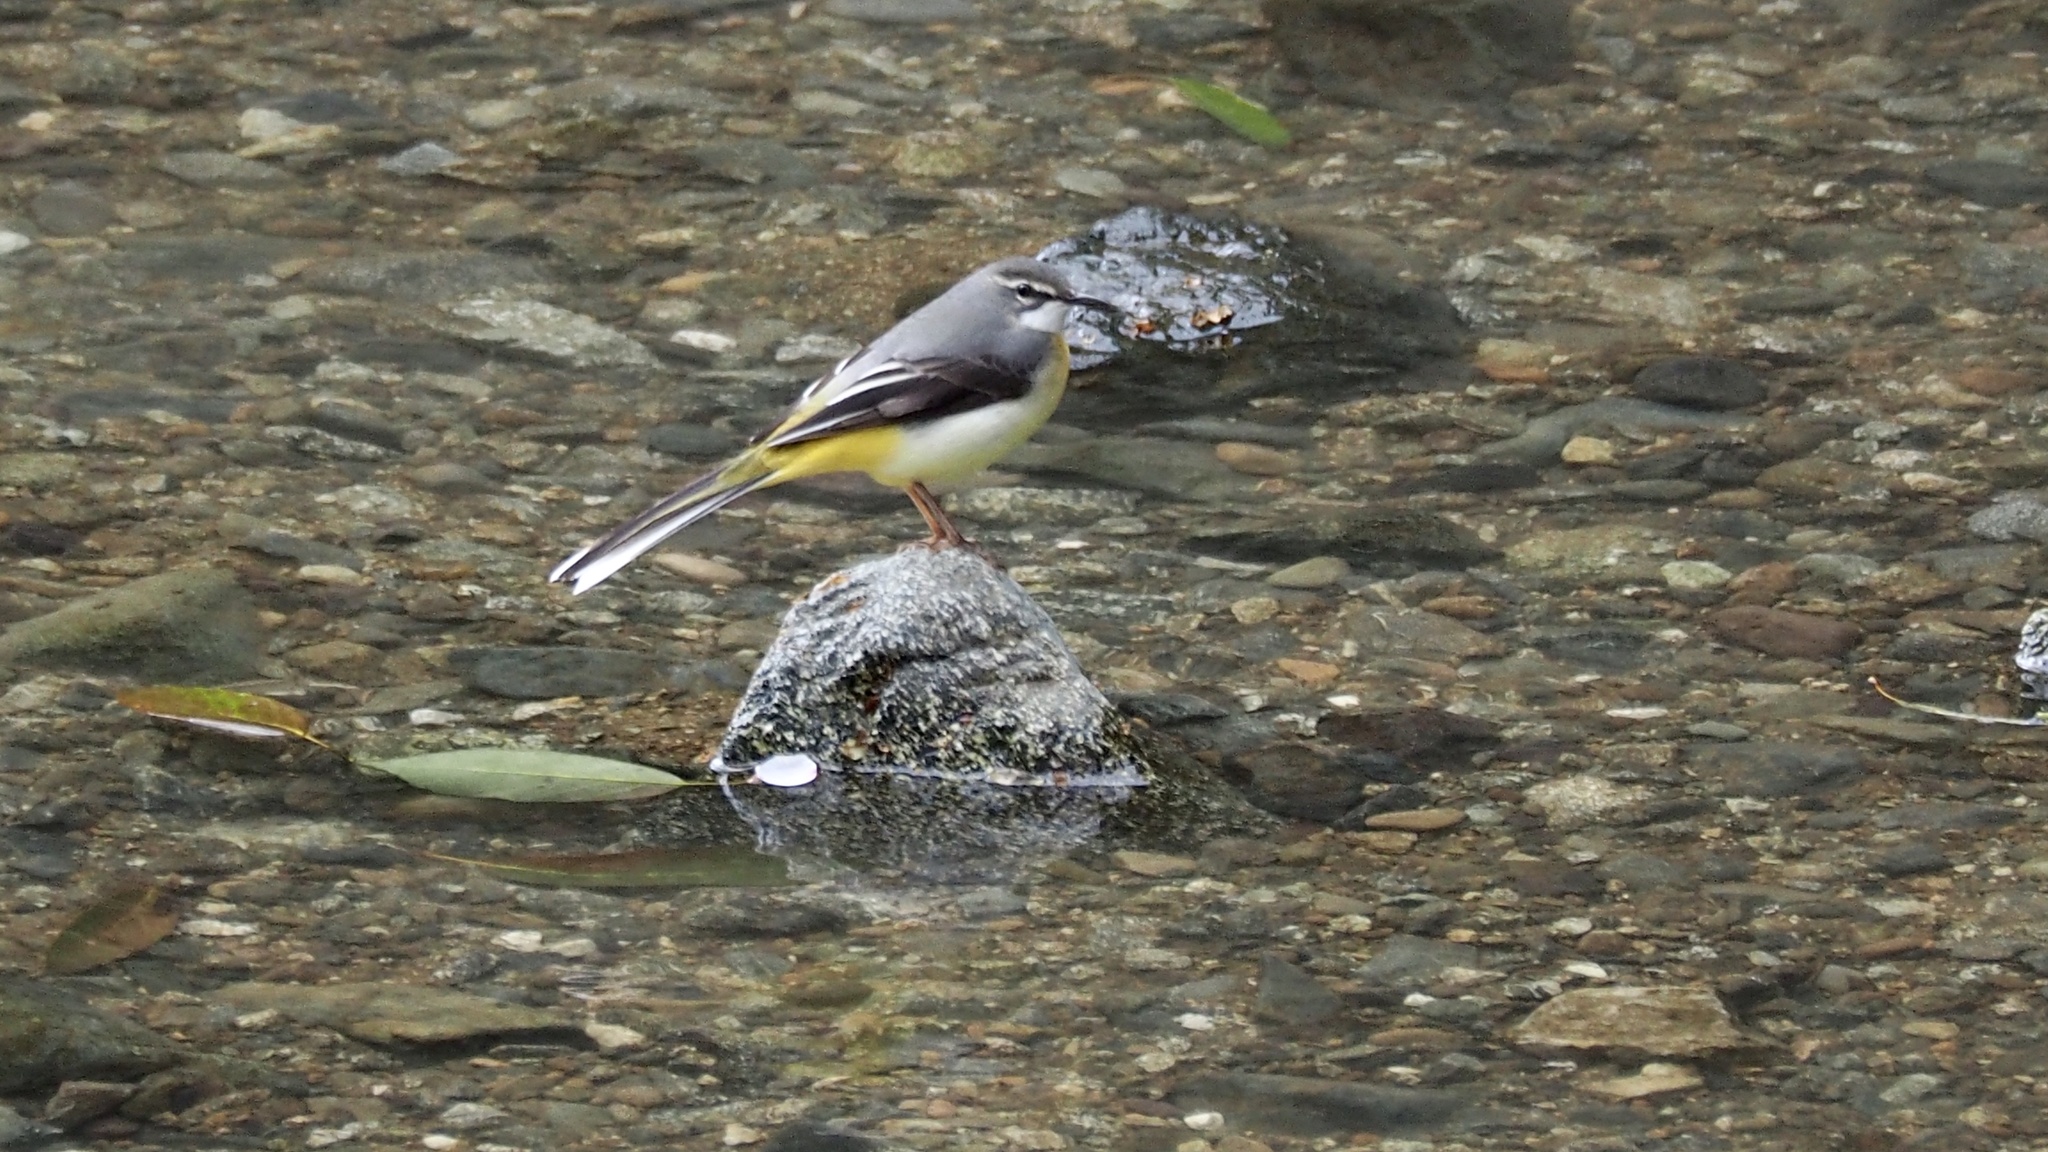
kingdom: Animalia
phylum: Chordata
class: Aves
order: Passeriformes
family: Motacillidae
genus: Motacilla
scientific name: Motacilla cinerea
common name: Grey wagtail
